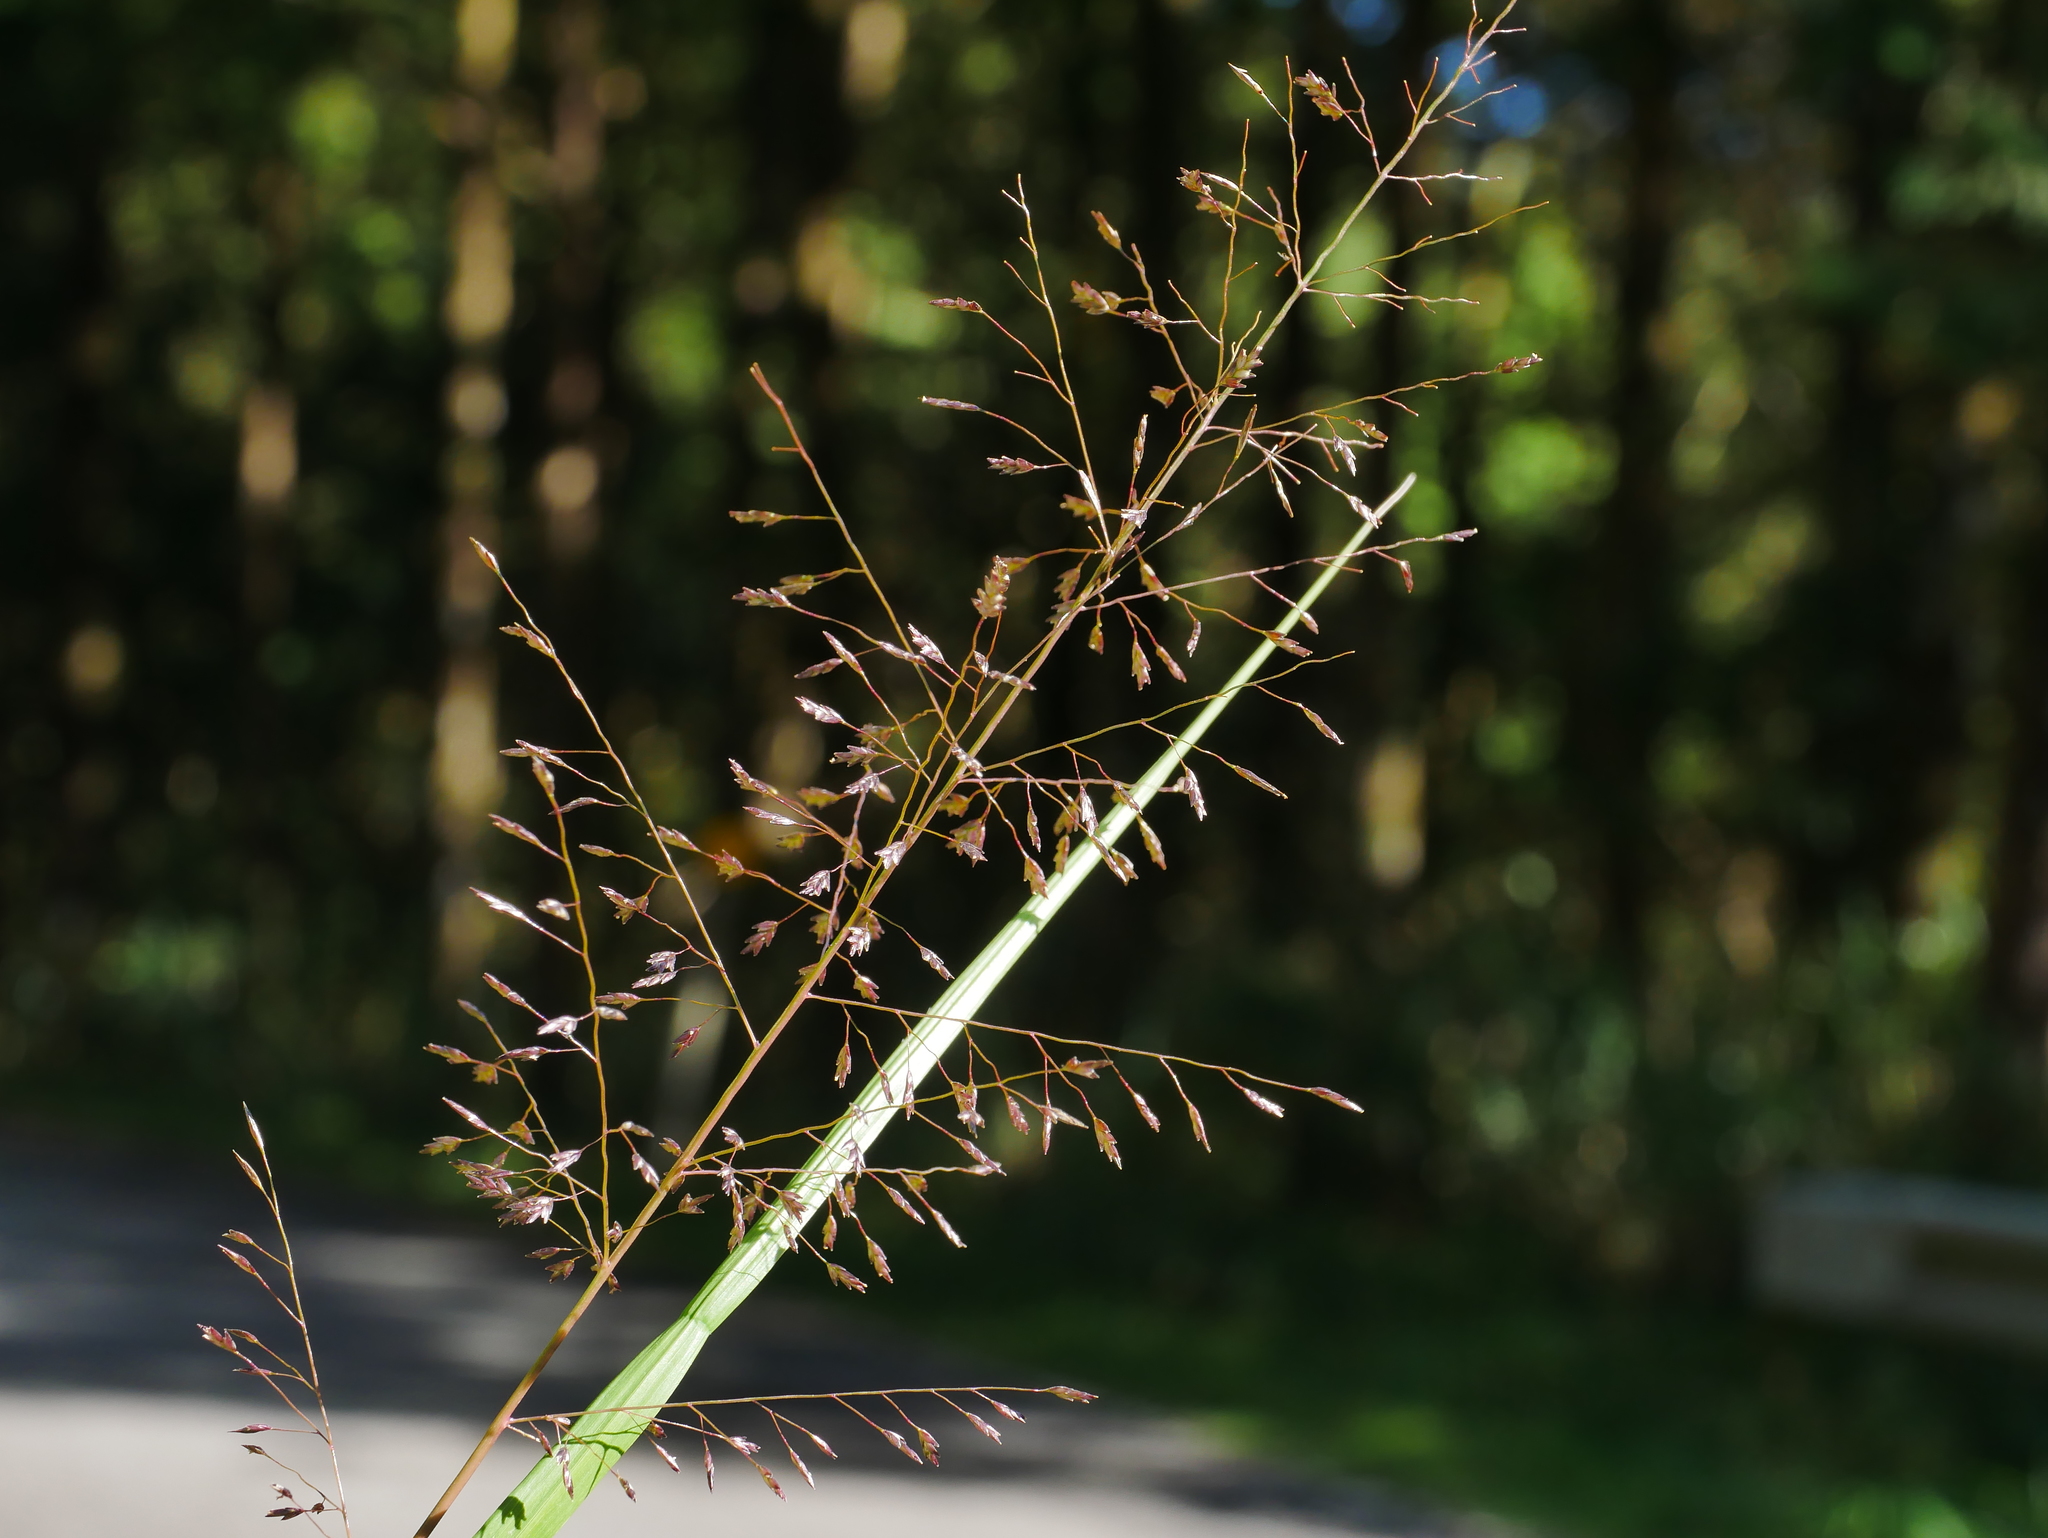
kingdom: Plantae
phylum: Tracheophyta
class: Liliopsida
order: Poales
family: Poaceae
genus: Eragrostis
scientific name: Eragrostis ferruginea
